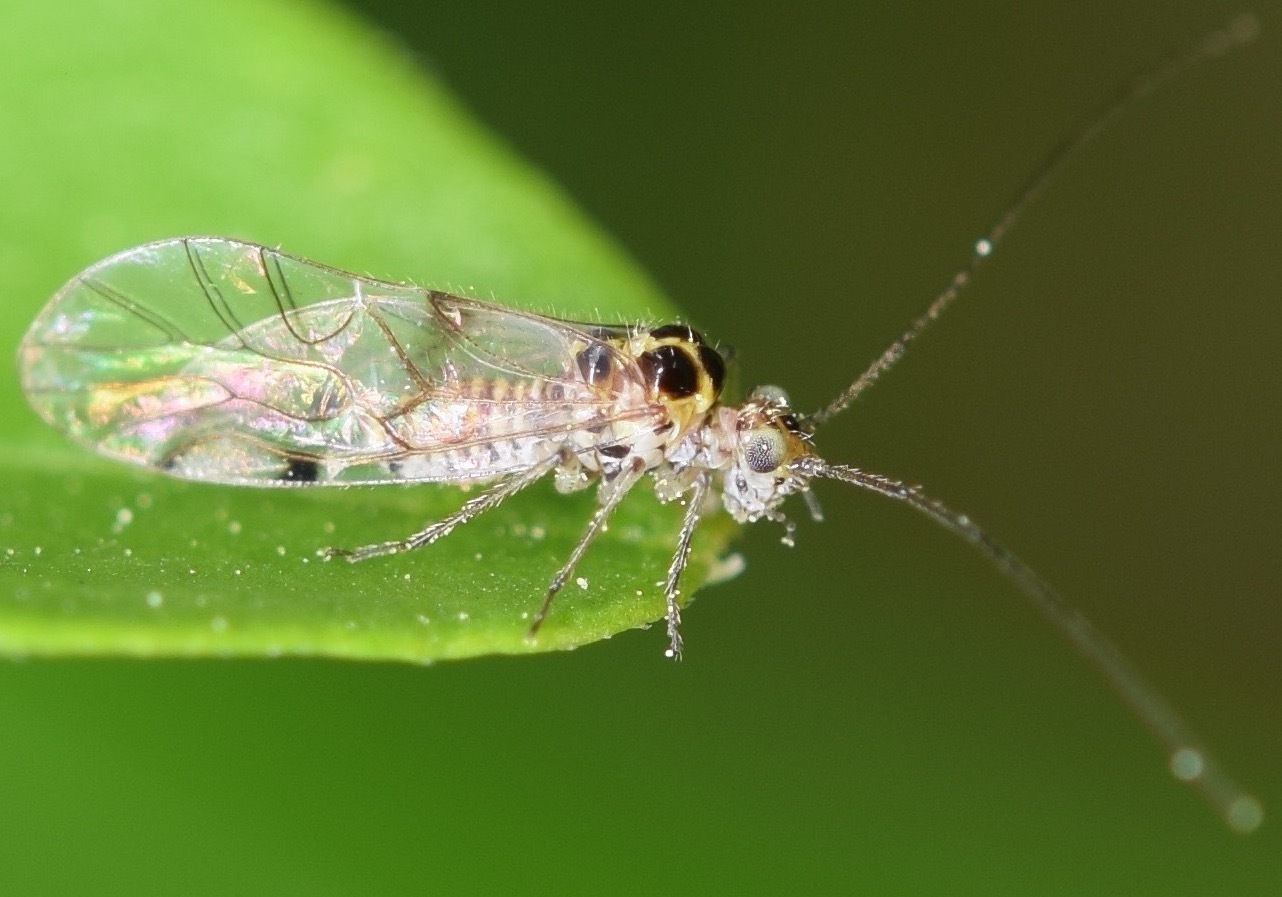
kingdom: Animalia
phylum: Arthropoda
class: Insecta
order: Psocodea
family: Dasydemellidae
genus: Teliapsocus
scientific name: Teliapsocus conterminus
